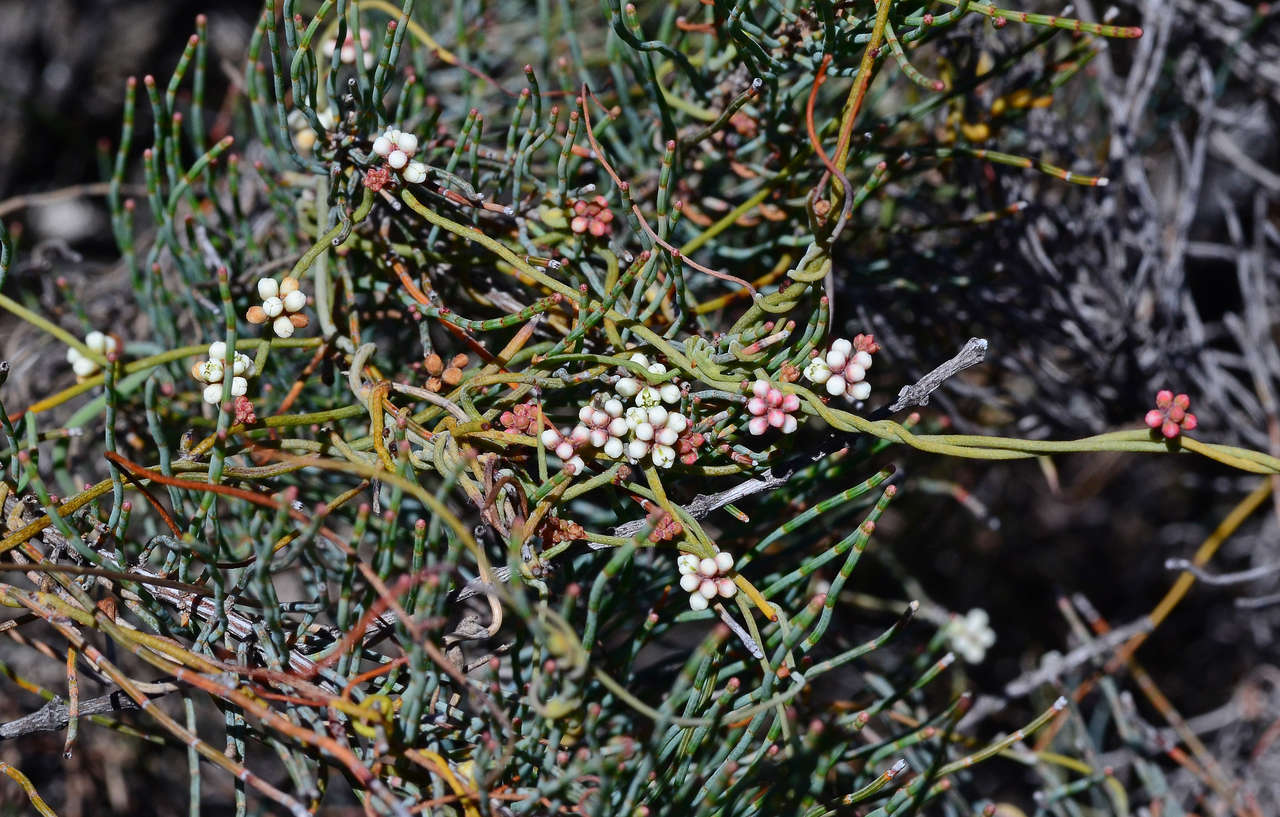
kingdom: Plantae
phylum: Tracheophyta
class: Magnoliopsida
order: Laurales
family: Lauraceae
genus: Cassytha
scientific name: Cassytha glabella
